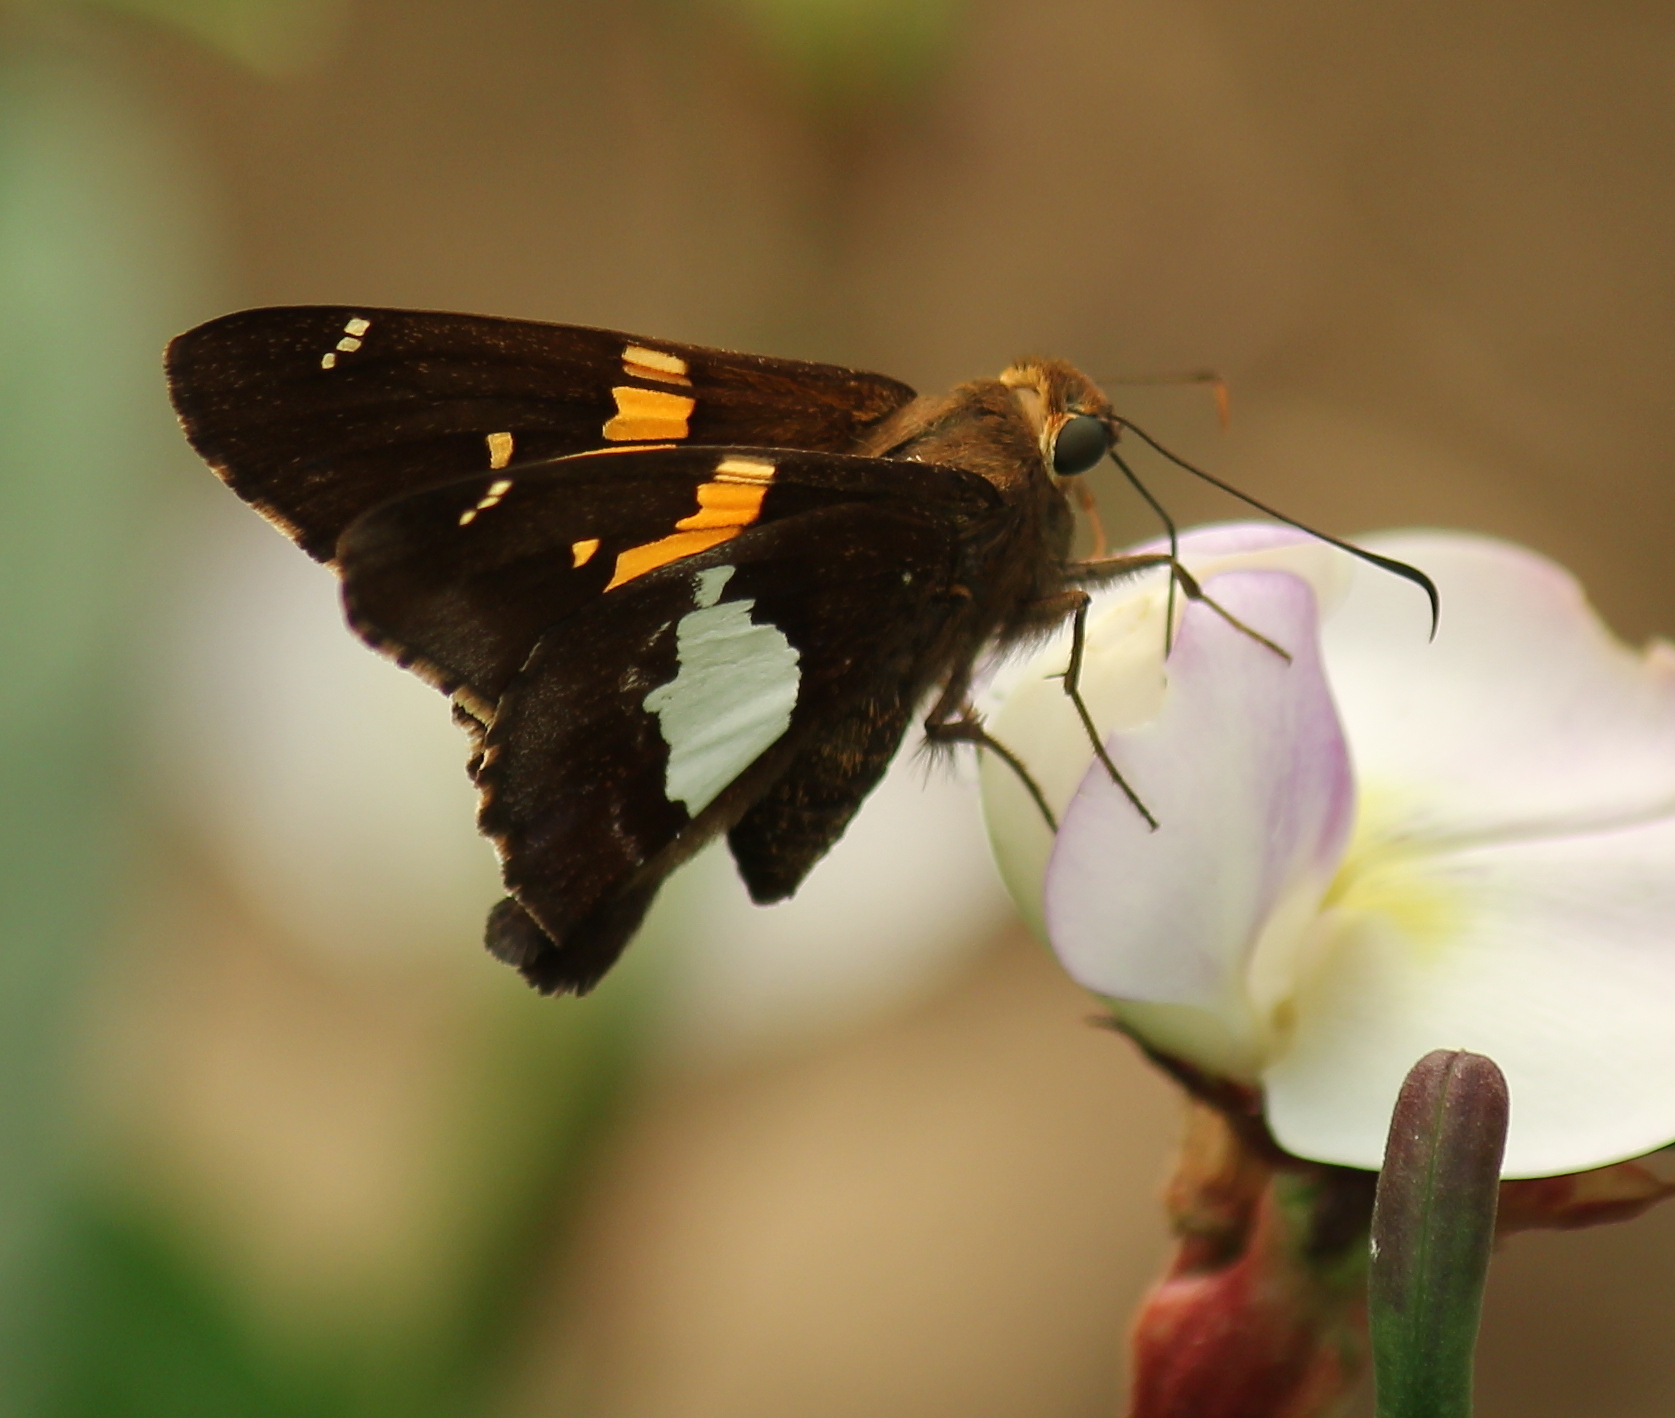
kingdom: Animalia
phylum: Arthropoda
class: Insecta
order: Lepidoptera
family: Hesperiidae
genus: Epargyreus
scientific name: Epargyreus clarus
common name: Silver-spotted skipper
